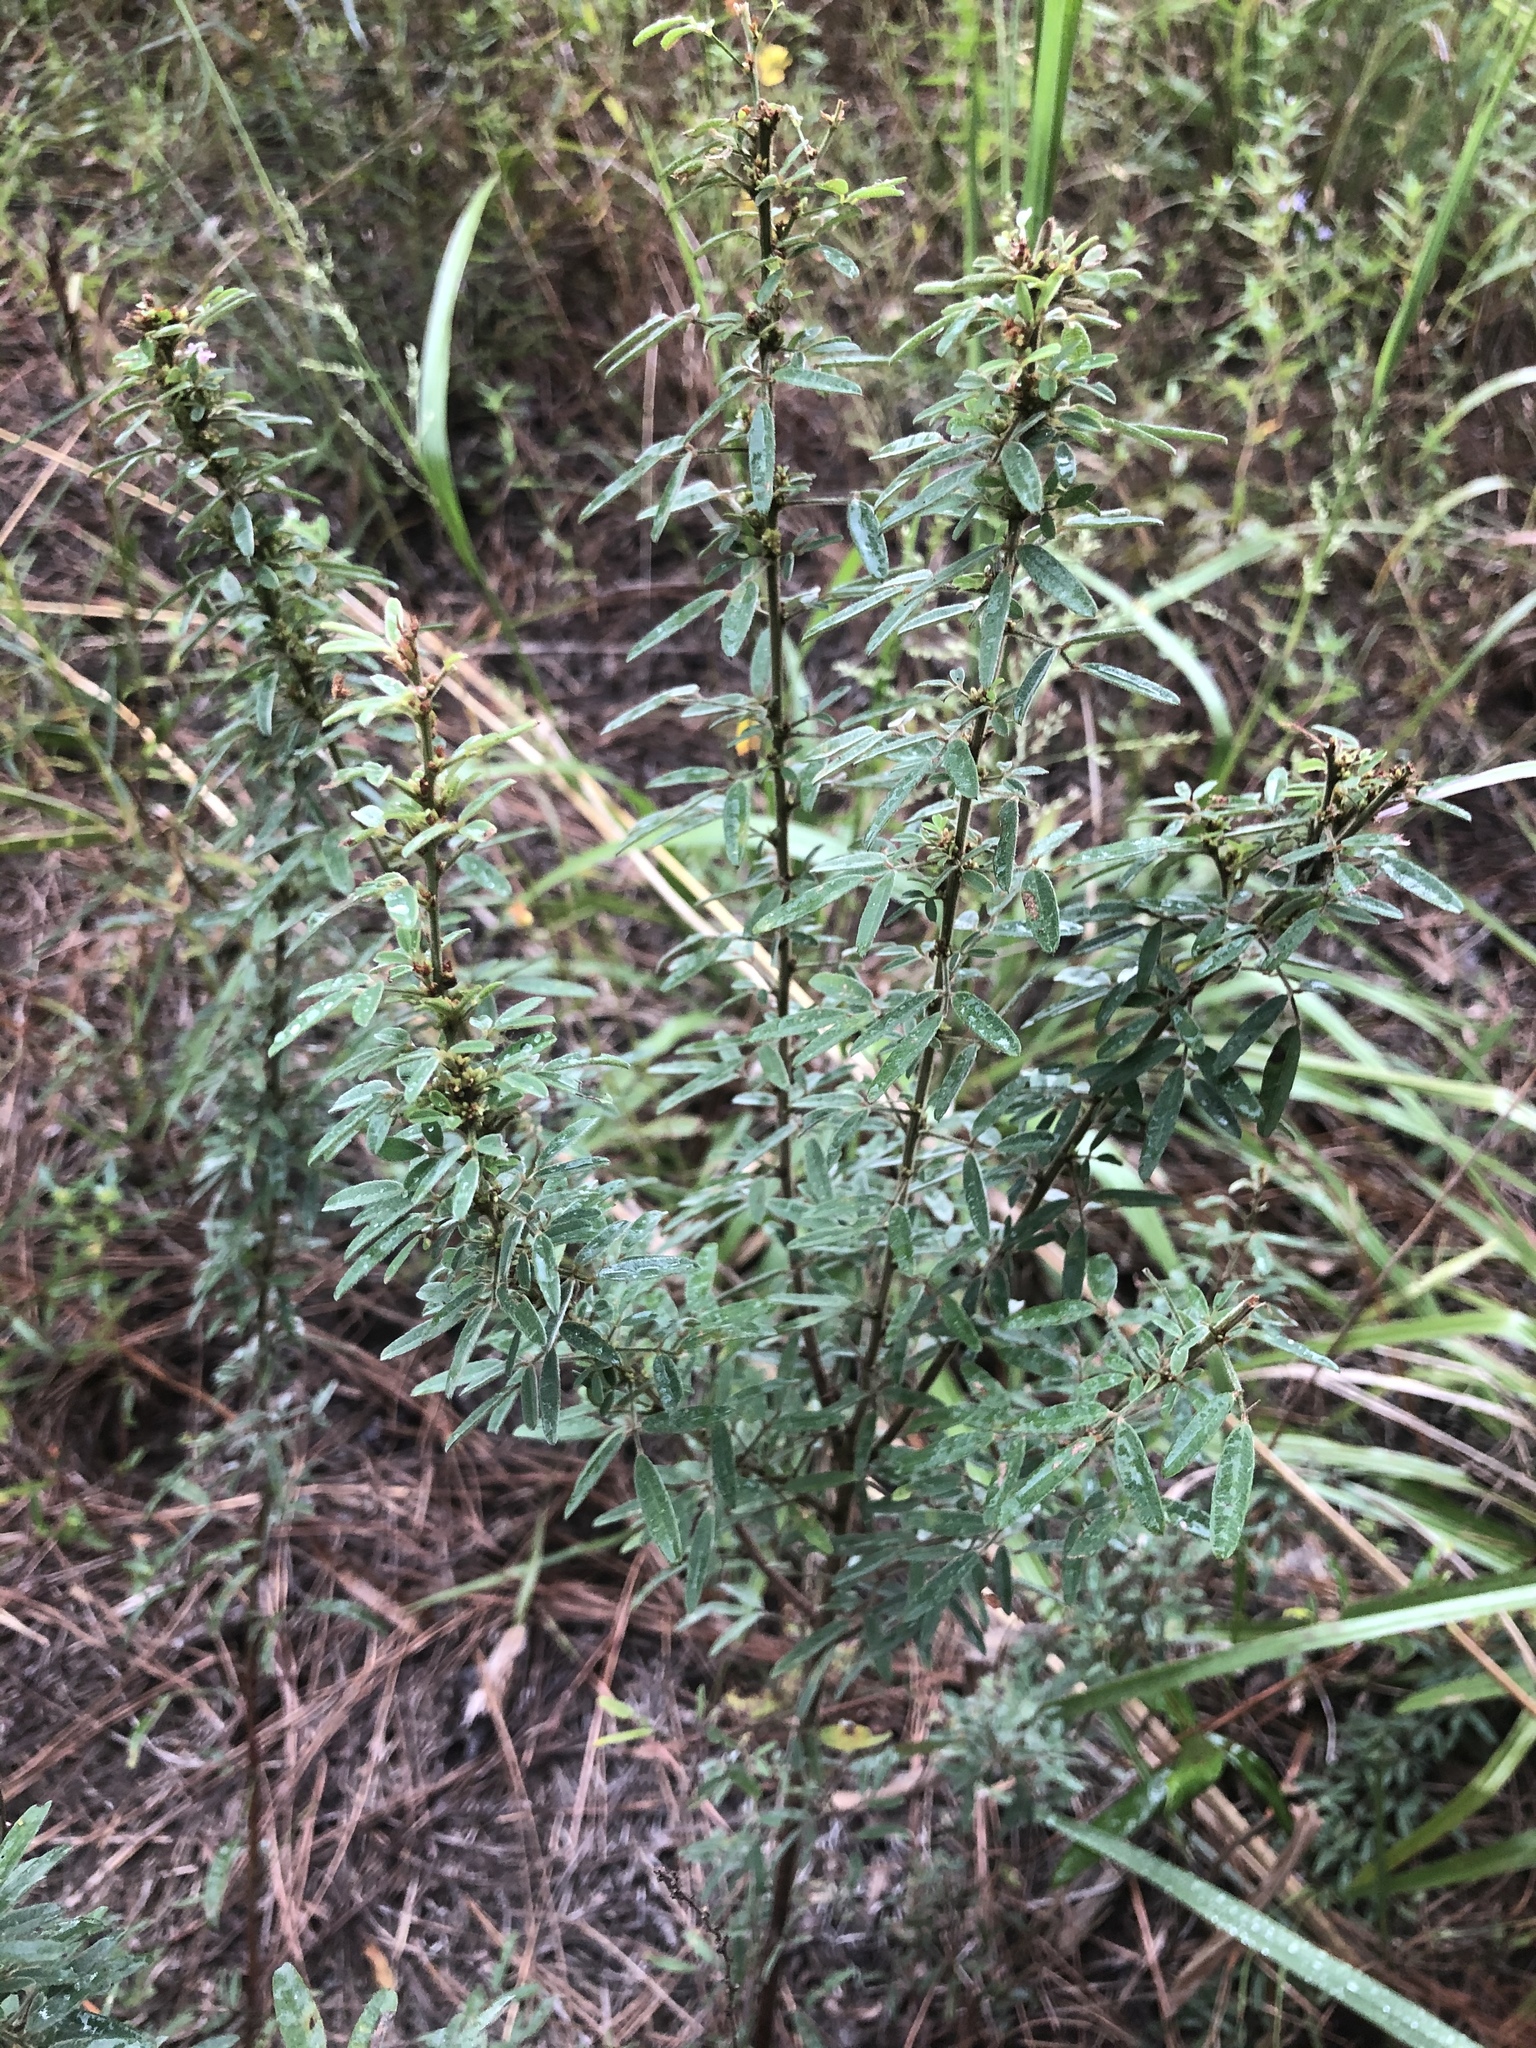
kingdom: Plantae
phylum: Tracheophyta
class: Magnoliopsida
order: Fabales
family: Fabaceae
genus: Lespedeza
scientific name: Lespedeza virginica
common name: Slender bush-clover
